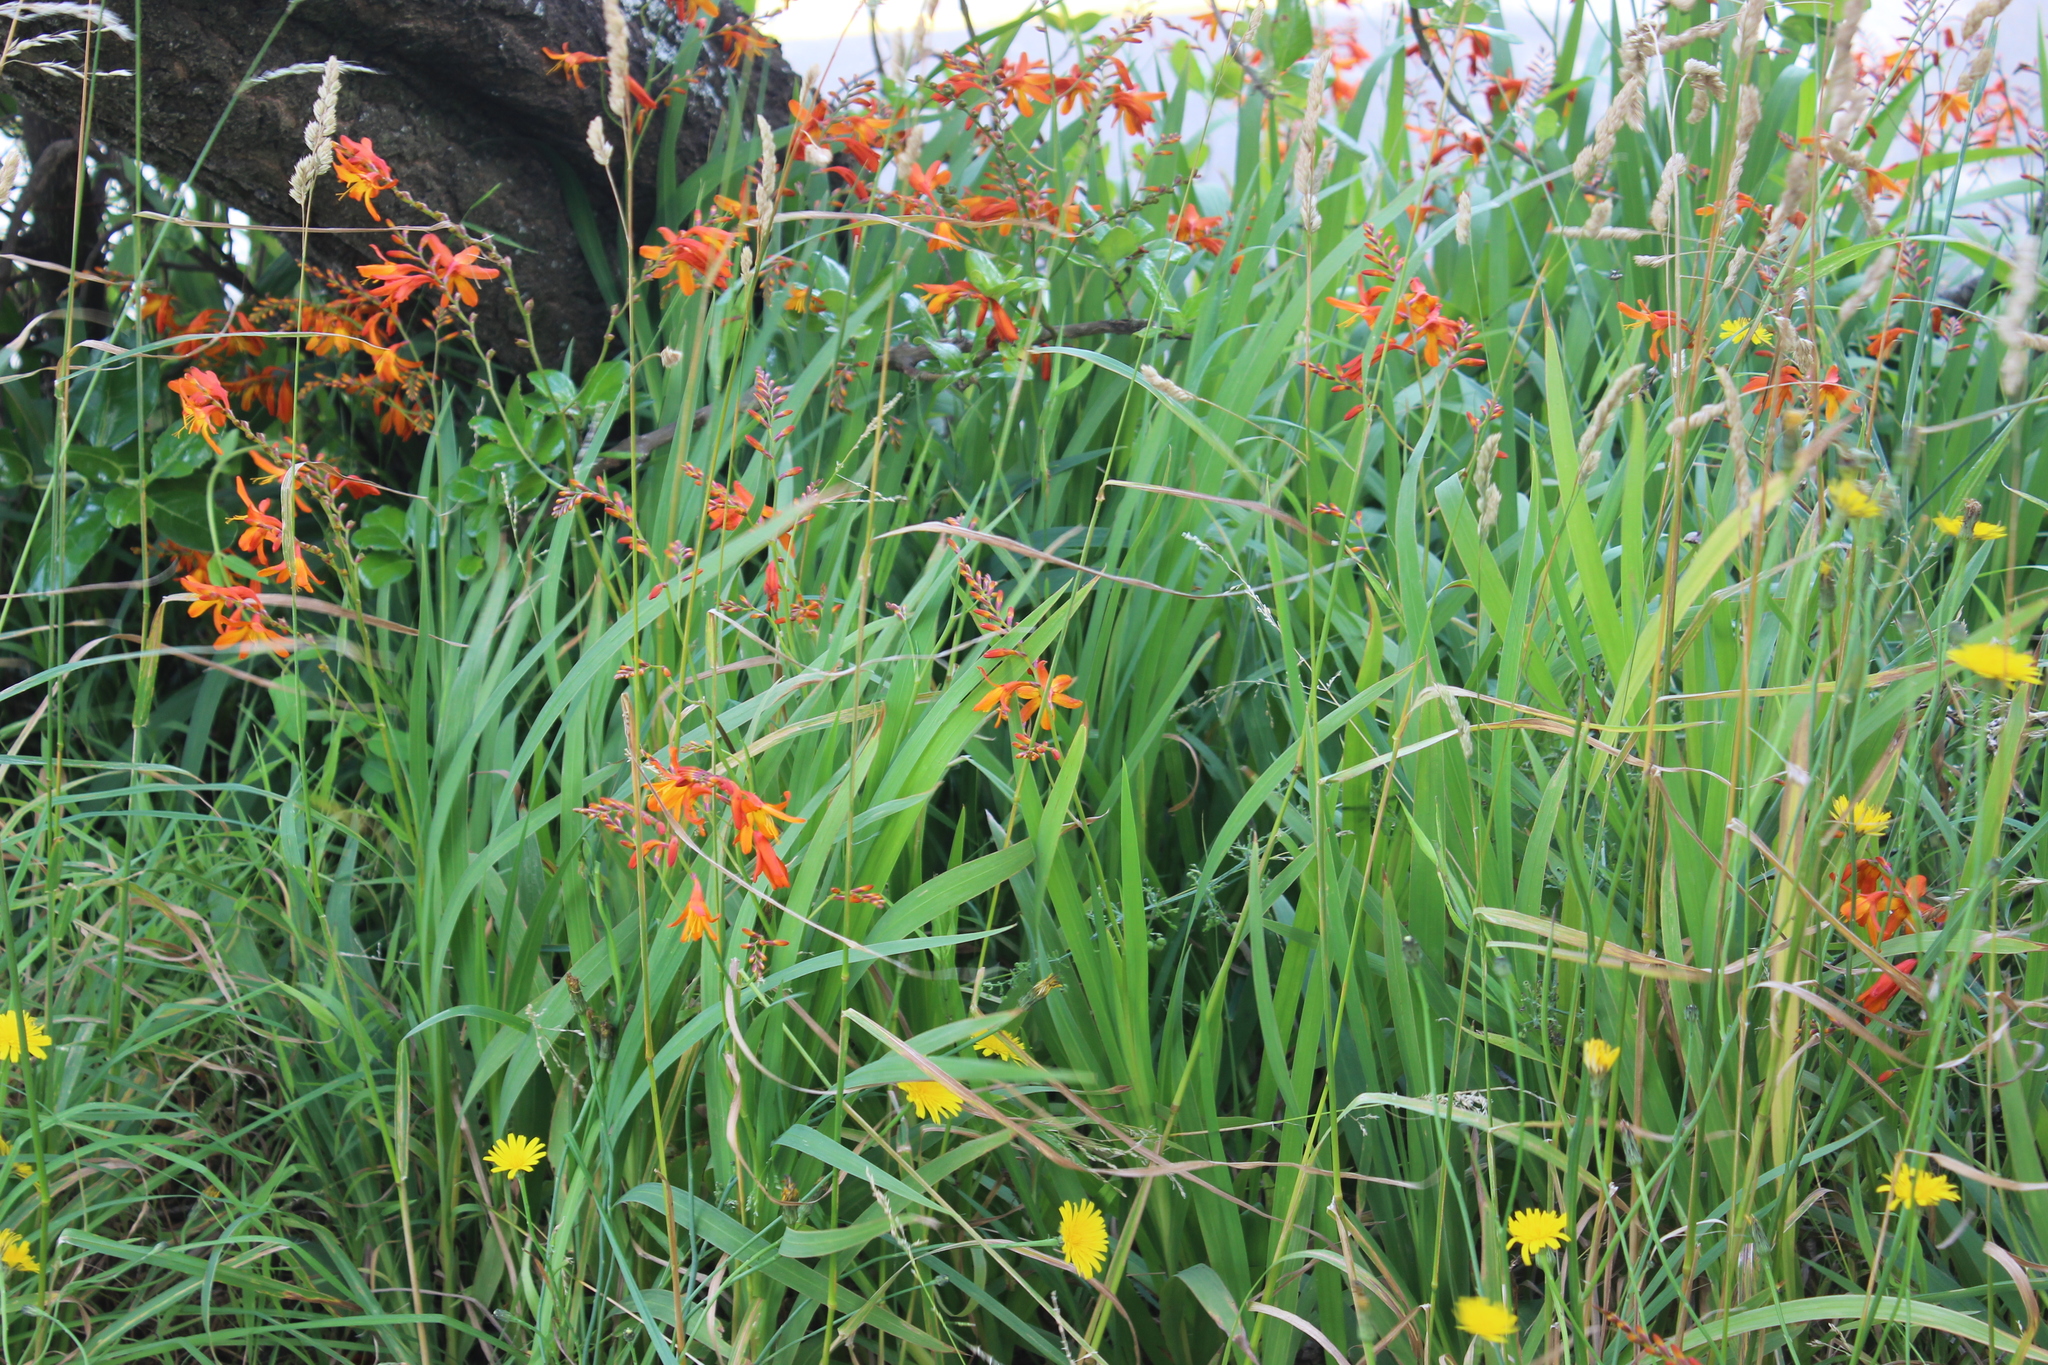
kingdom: Plantae
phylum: Tracheophyta
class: Liliopsida
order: Asparagales
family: Iridaceae
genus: Crocosmia
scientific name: Crocosmia crocosmiiflora
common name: Montbretia
